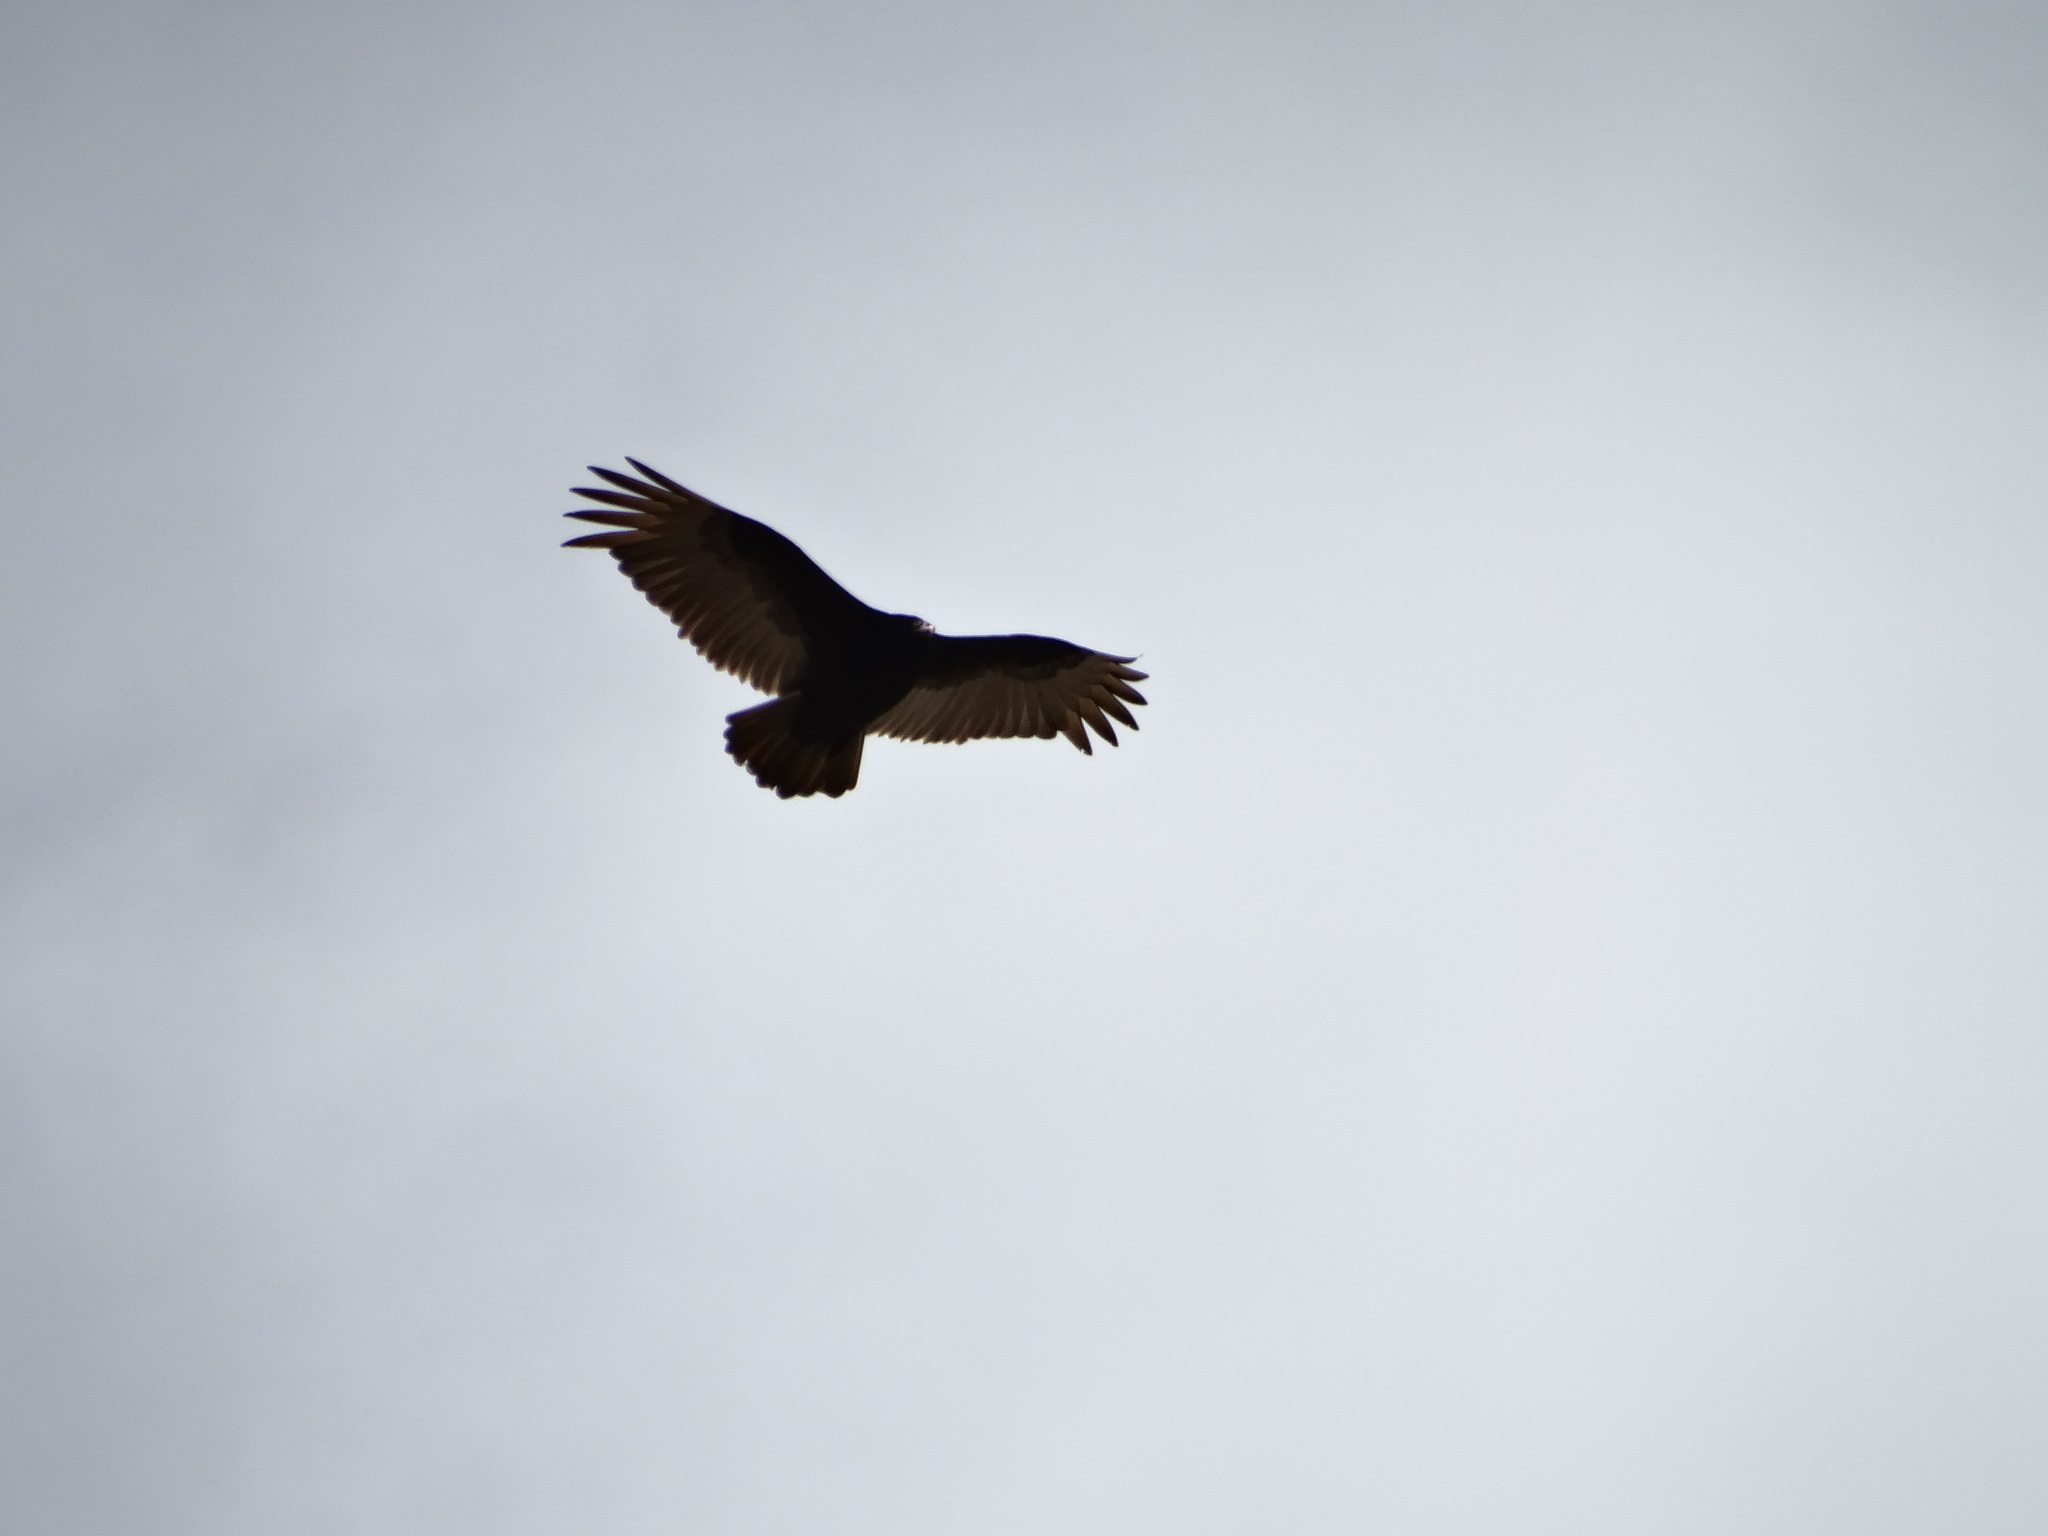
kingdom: Animalia
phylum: Chordata
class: Aves
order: Accipitriformes
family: Cathartidae
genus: Cathartes
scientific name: Cathartes aura
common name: Turkey vulture
